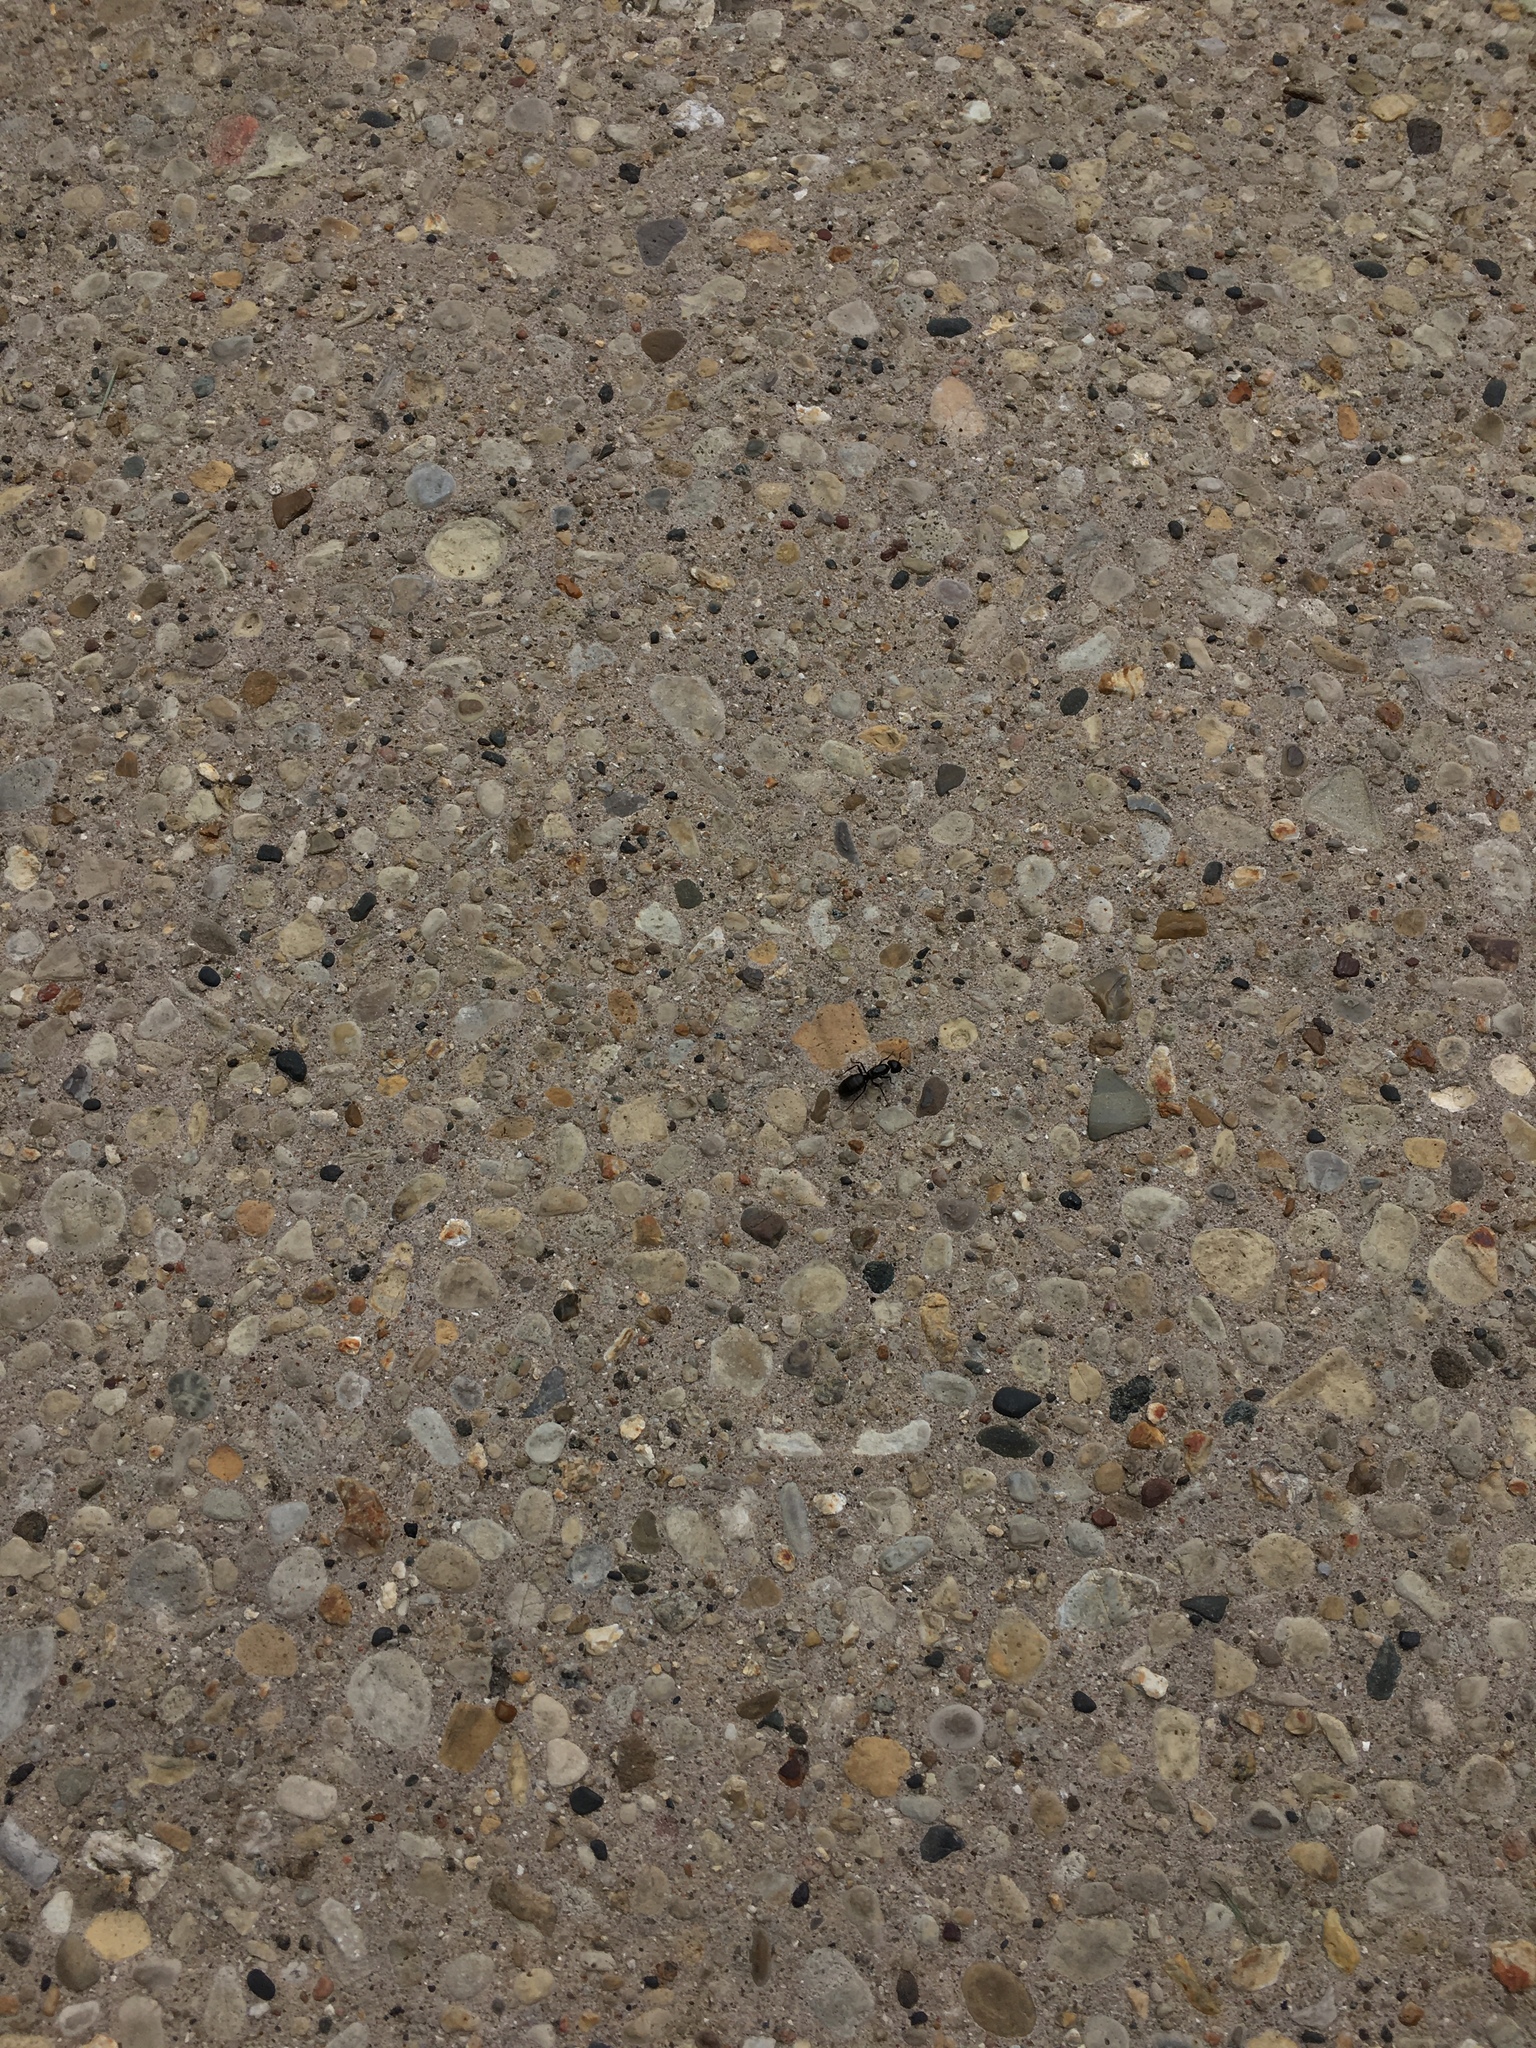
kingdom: Animalia
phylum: Arthropoda
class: Insecta
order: Hymenoptera
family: Formicidae
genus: Camponotus
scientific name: Camponotus pennsylvanicus
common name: Black carpenter ant
